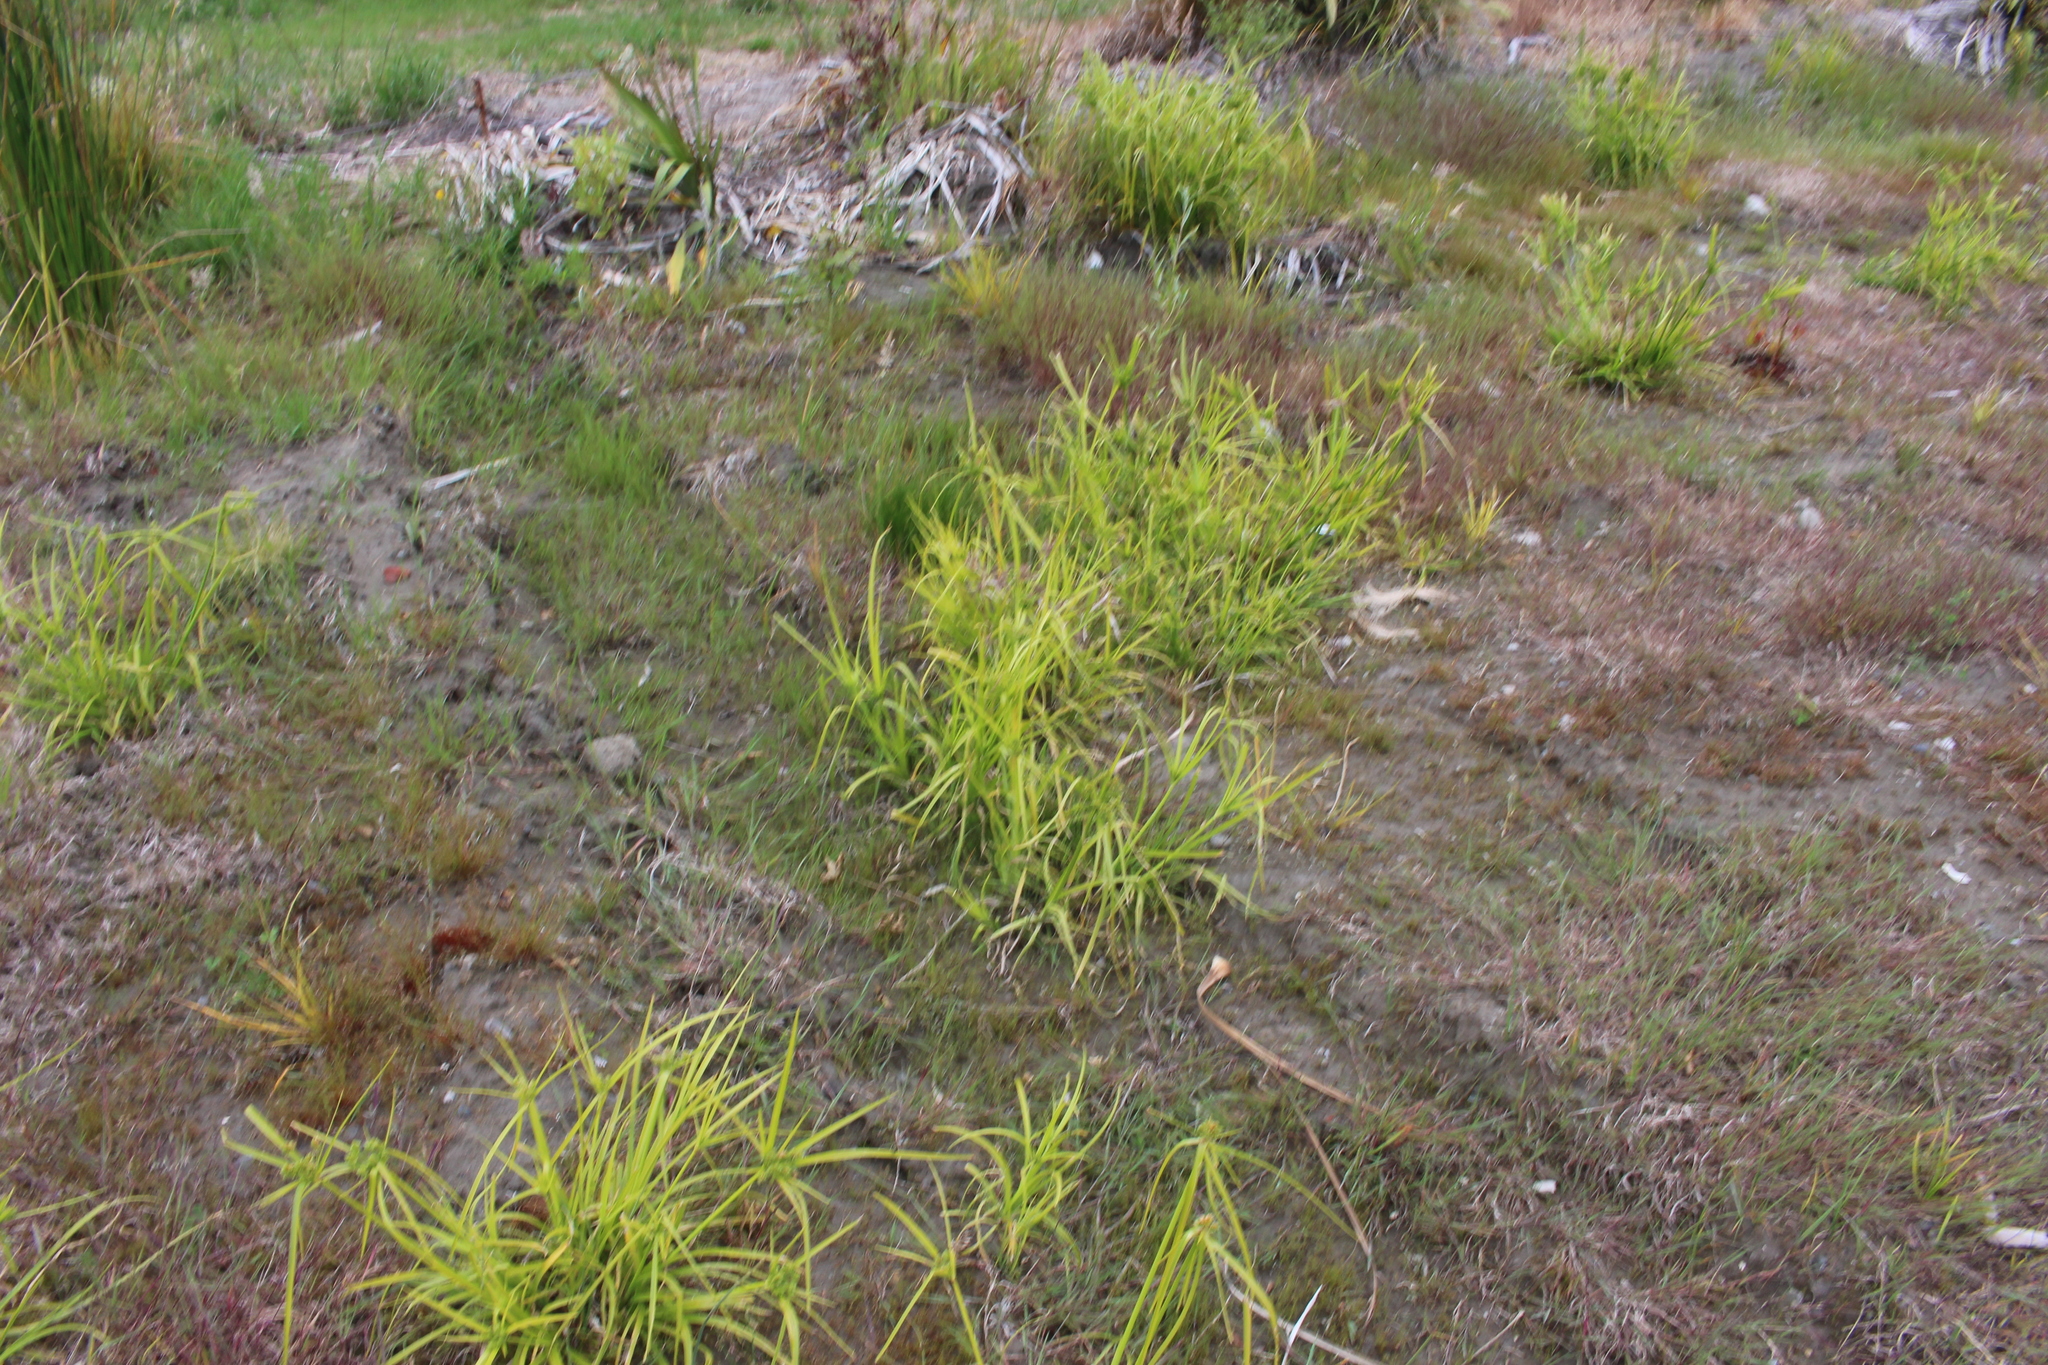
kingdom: Plantae
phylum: Tracheophyta
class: Liliopsida
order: Poales
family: Cyperaceae
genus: Cyperus
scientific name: Cyperus eragrostis
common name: Tall flatsedge
